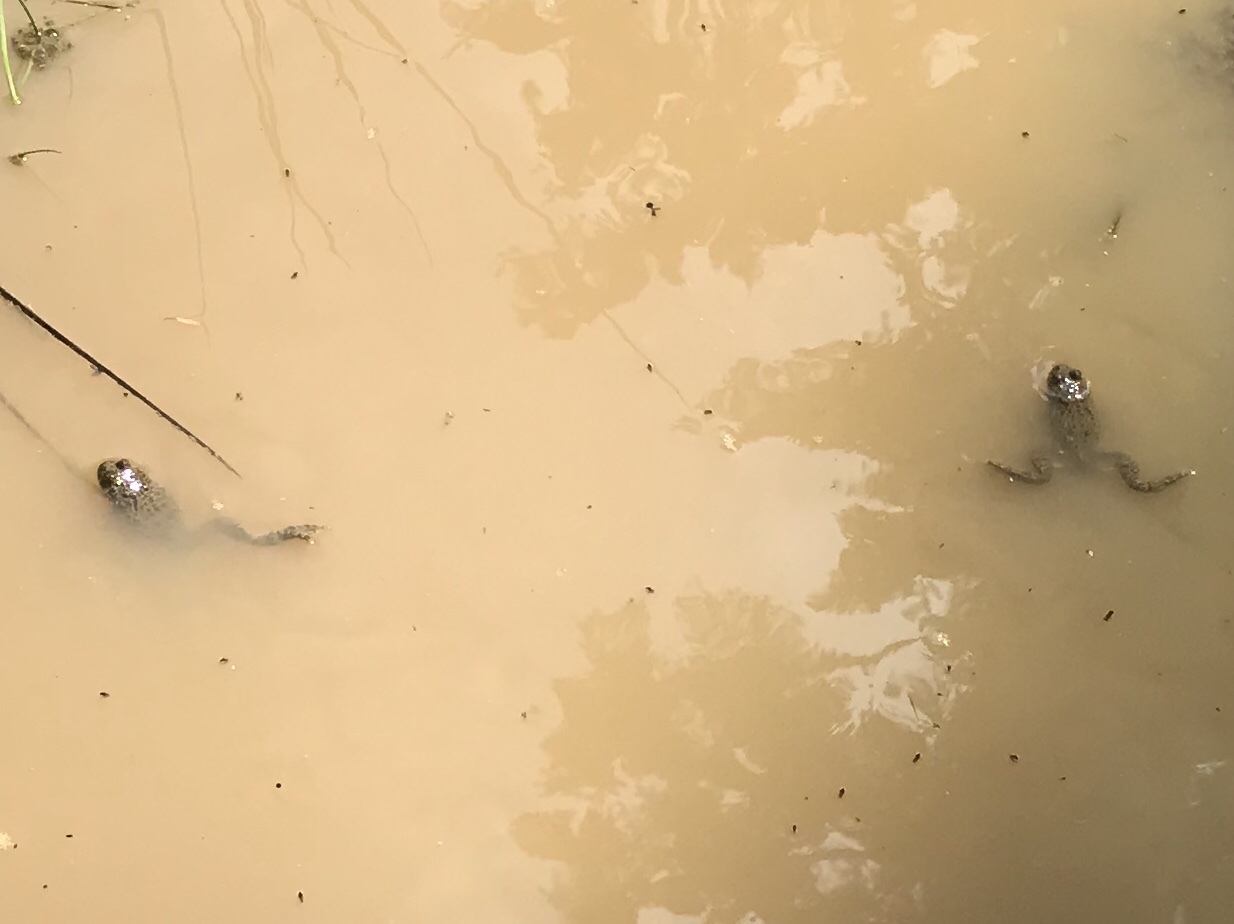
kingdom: Animalia
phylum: Chordata
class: Amphibia
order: Anura
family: Bombinatoridae
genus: Bombina
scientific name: Bombina variegata
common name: Yellow-bellied toad
